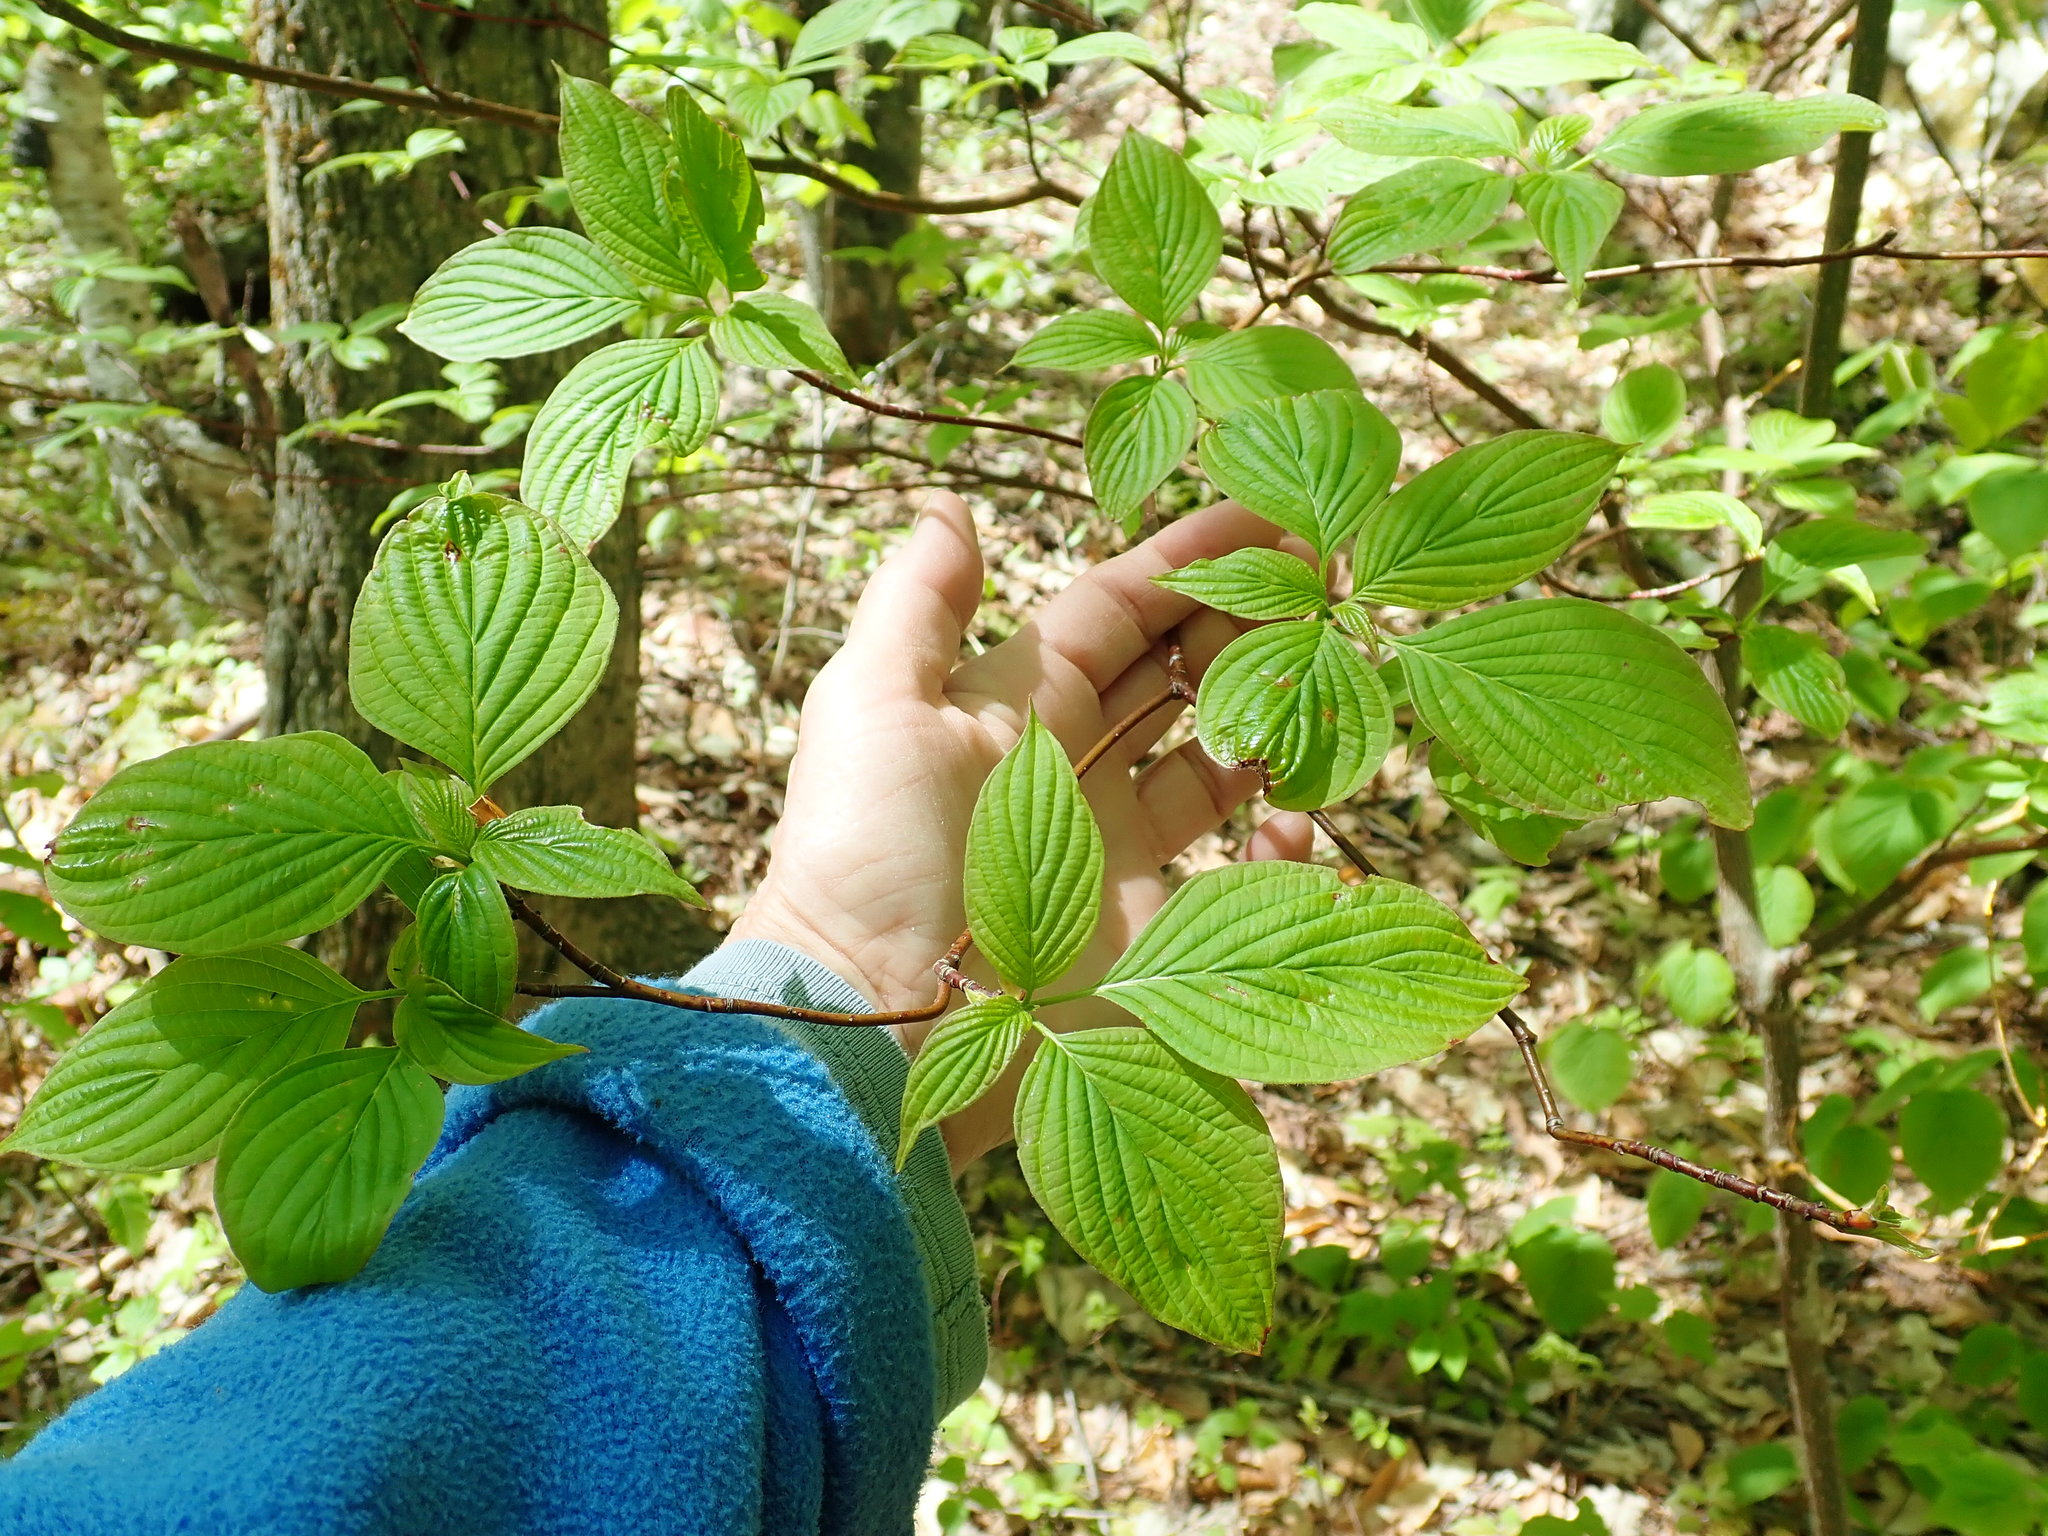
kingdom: Plantae
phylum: Tracheophyta
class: Magnoliopsida
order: Cornales
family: Cornaceae
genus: Cornus
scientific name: Cornus alternifolia
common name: Pagoda dogwood
